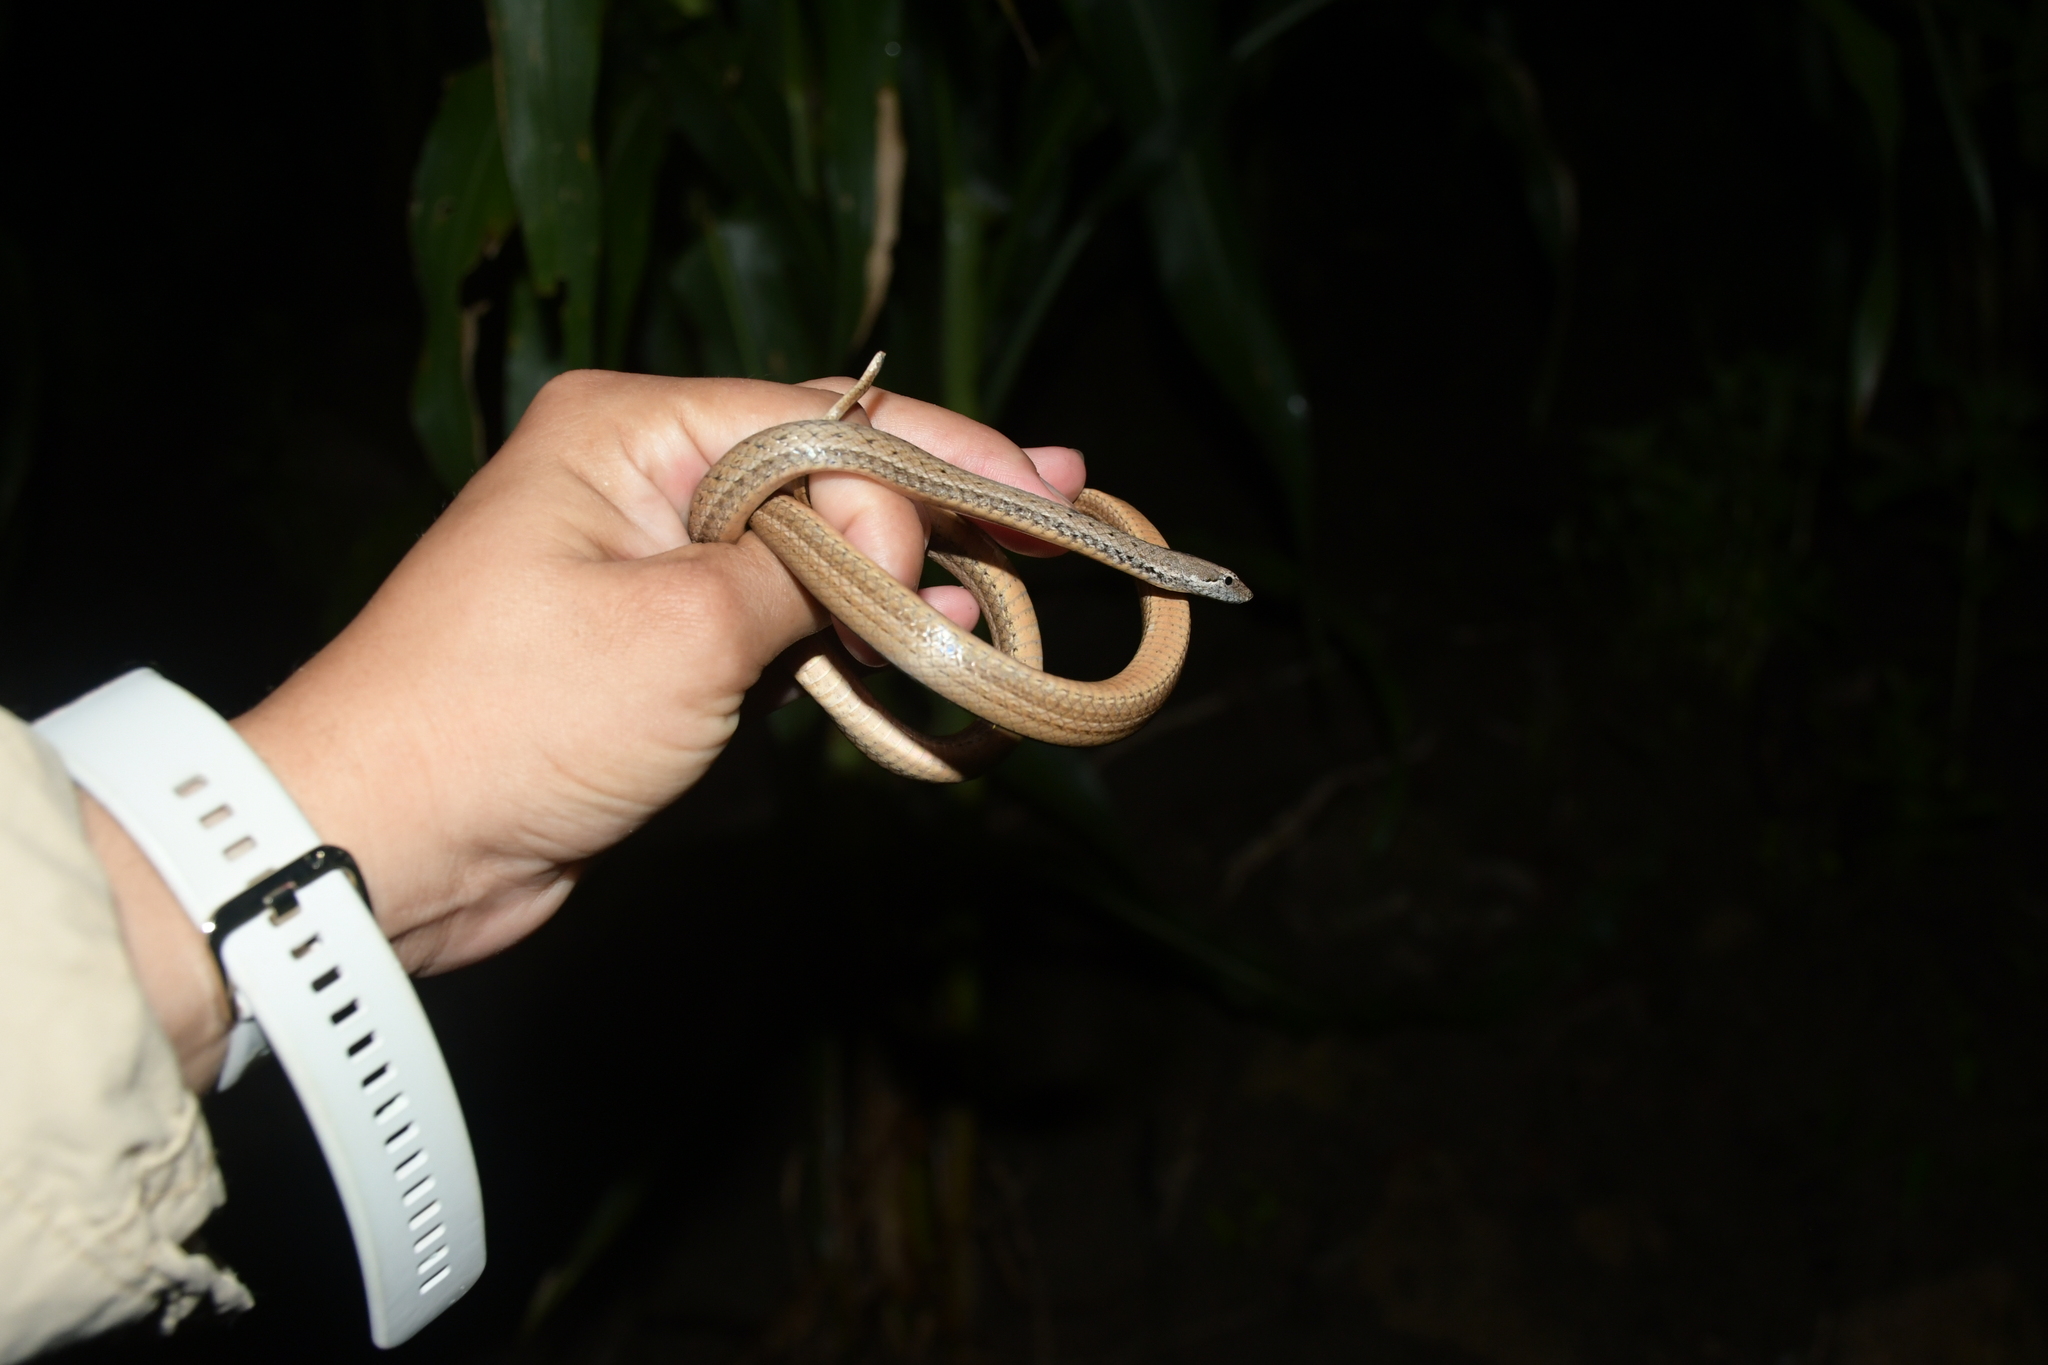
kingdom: Animalia
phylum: Chordata
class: Squamata
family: Colubridae
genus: Manolepis
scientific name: Manolepis putnami
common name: Ridgehead snake
